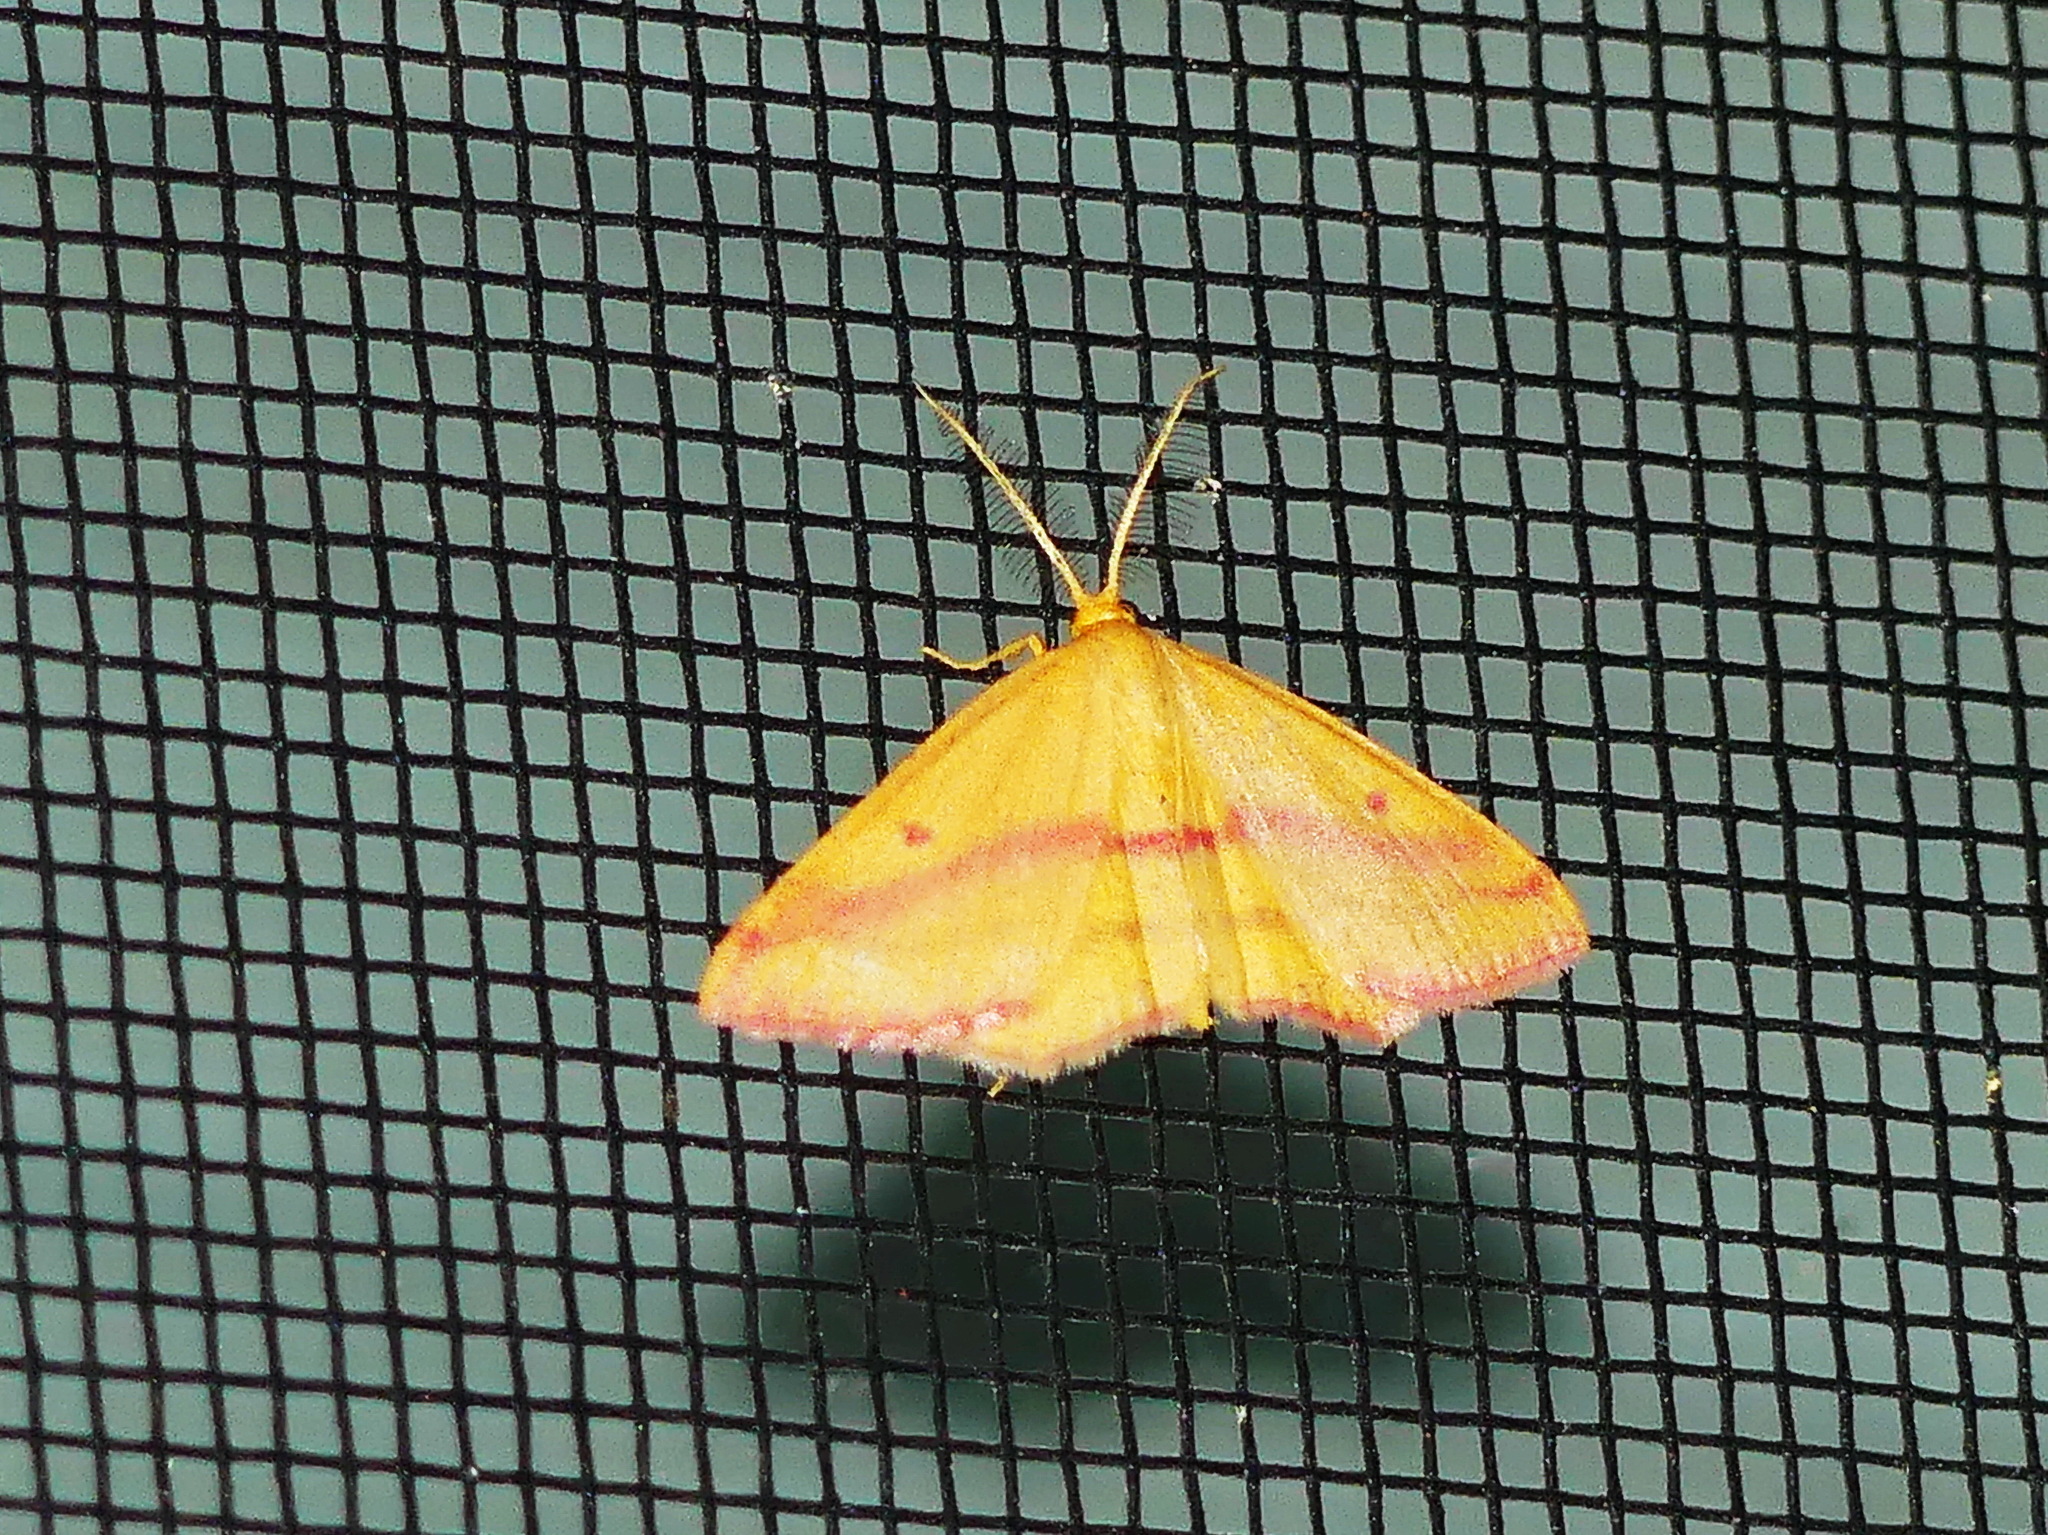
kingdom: Animalia
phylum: Arthropoda
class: Insecta
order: Lepidoptera
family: Geometridae
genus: Haematopis
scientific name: Haematopis grataria
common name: Chickweed geometer
